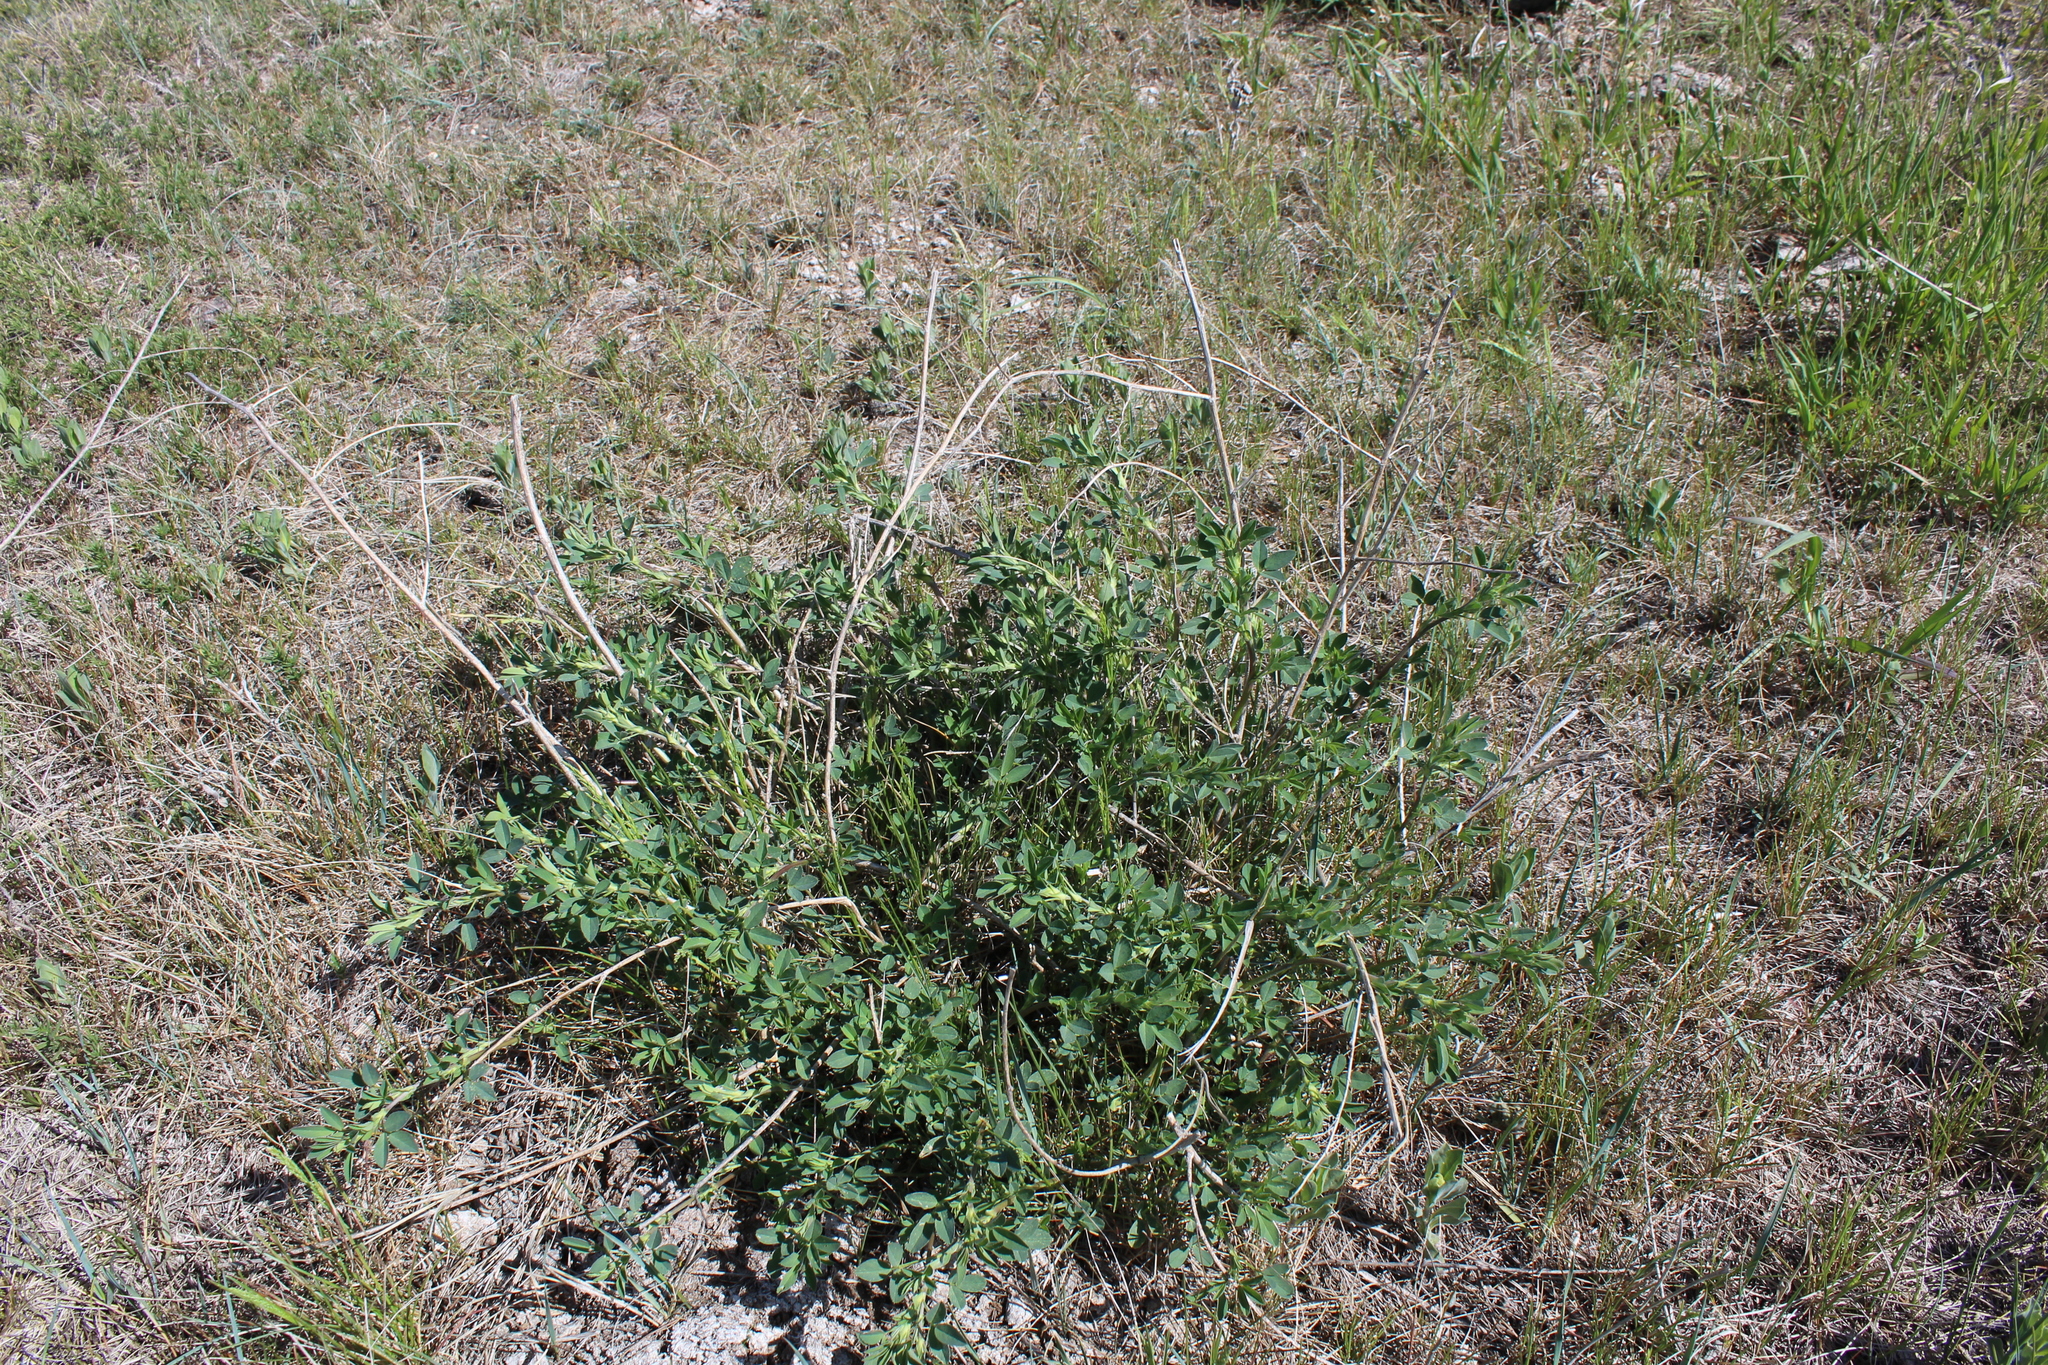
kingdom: Plantae
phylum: Tracheophyta
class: Magnoliopsida
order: Fabales
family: Fabaceae
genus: Medicago
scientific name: Medicago sativa
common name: Alfalfa
